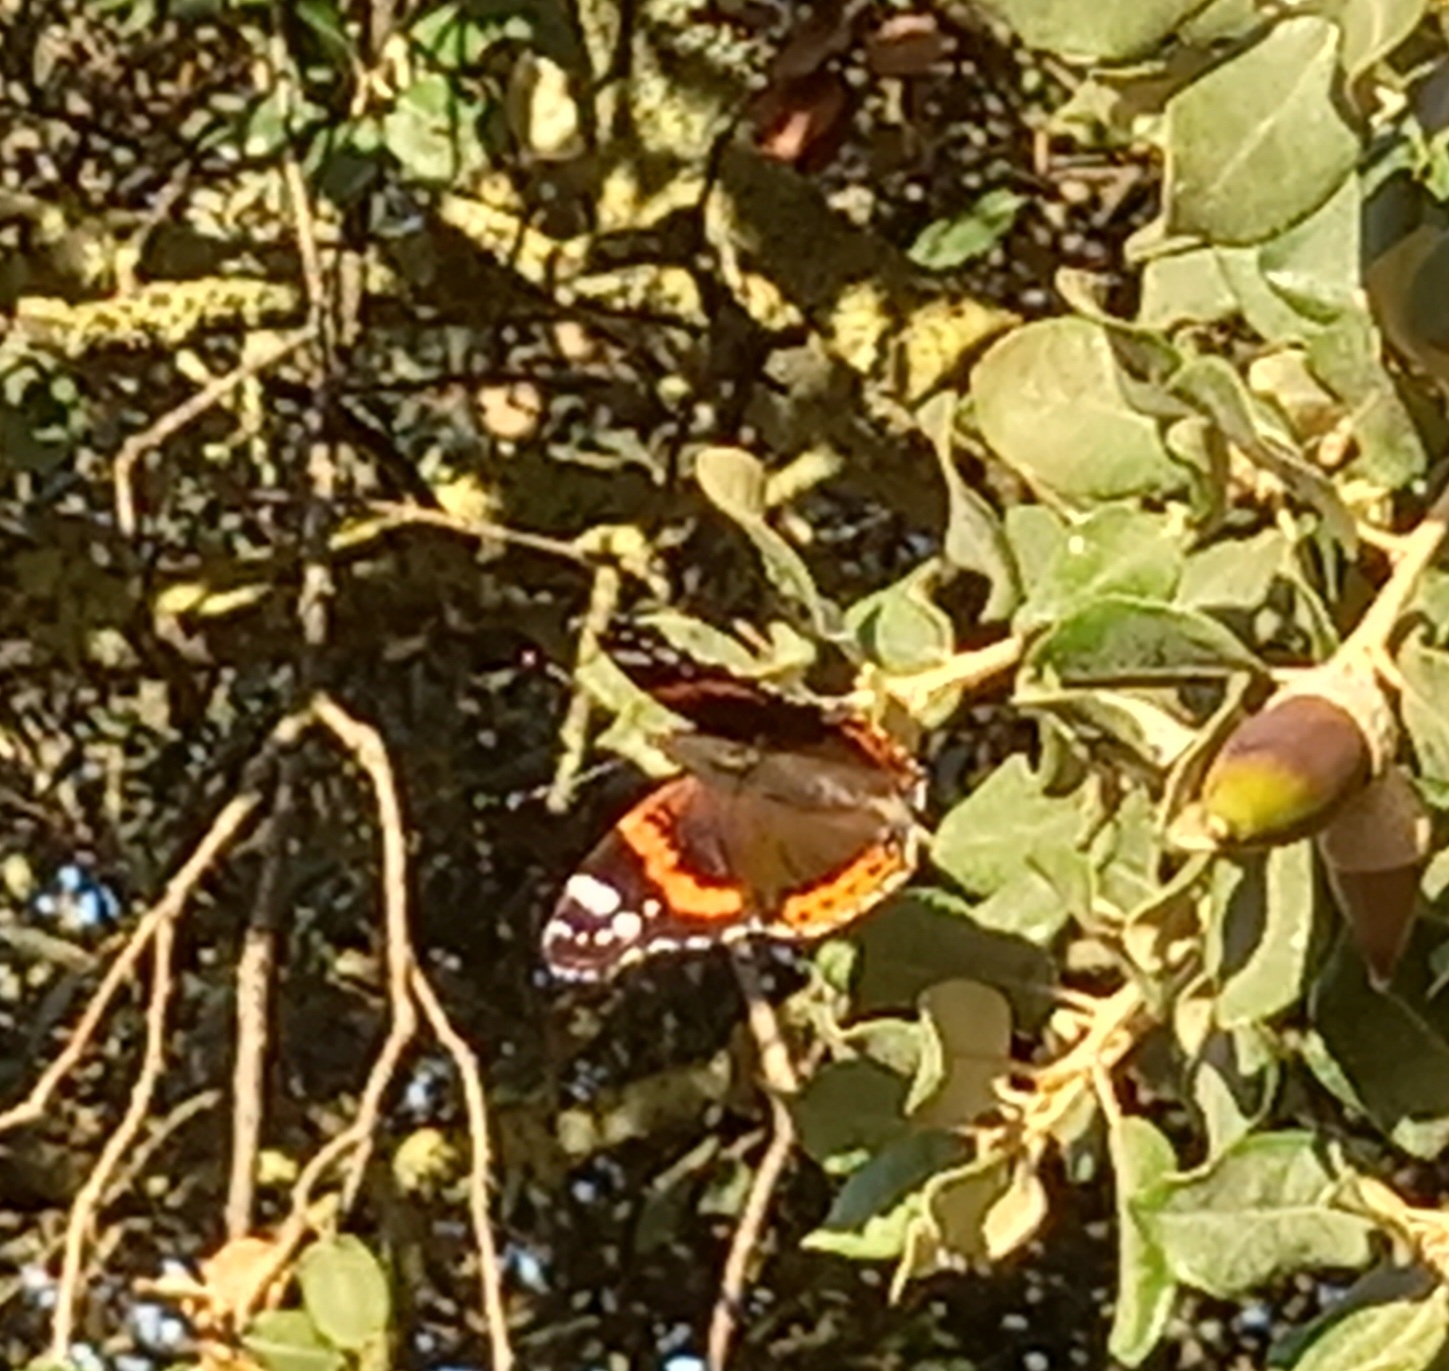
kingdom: Animalia
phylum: Arthropoda
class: Insecta
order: Lepidoptera
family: Nymphalidae
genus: Vanessa
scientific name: Vanessa atalanta
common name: Red admiral
